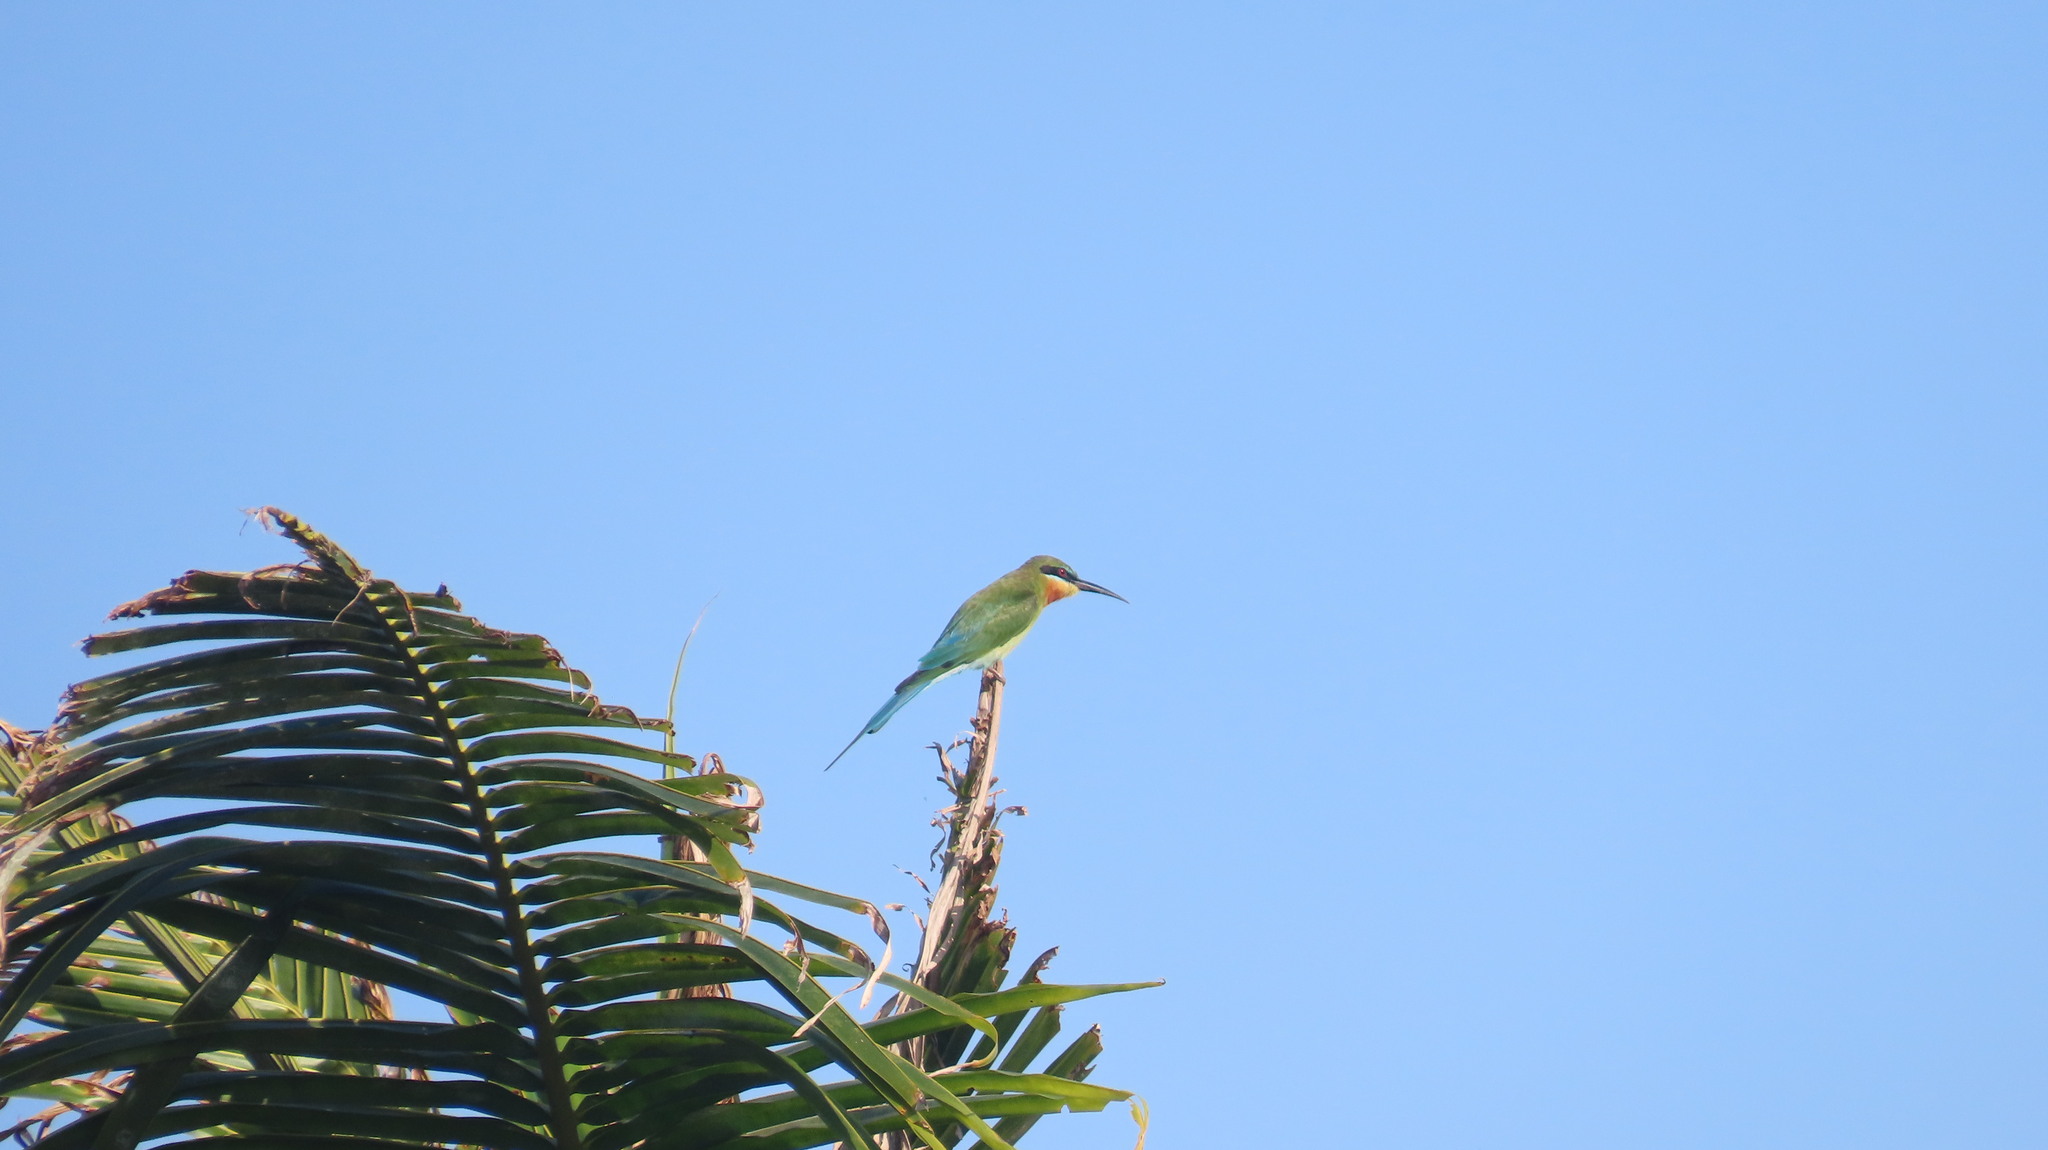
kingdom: Animalia
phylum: Chordata
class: Aves
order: Coraciiformes
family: Meropidae
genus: Merops
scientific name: Merops philippinus
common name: Blue-tailed bee-eater
